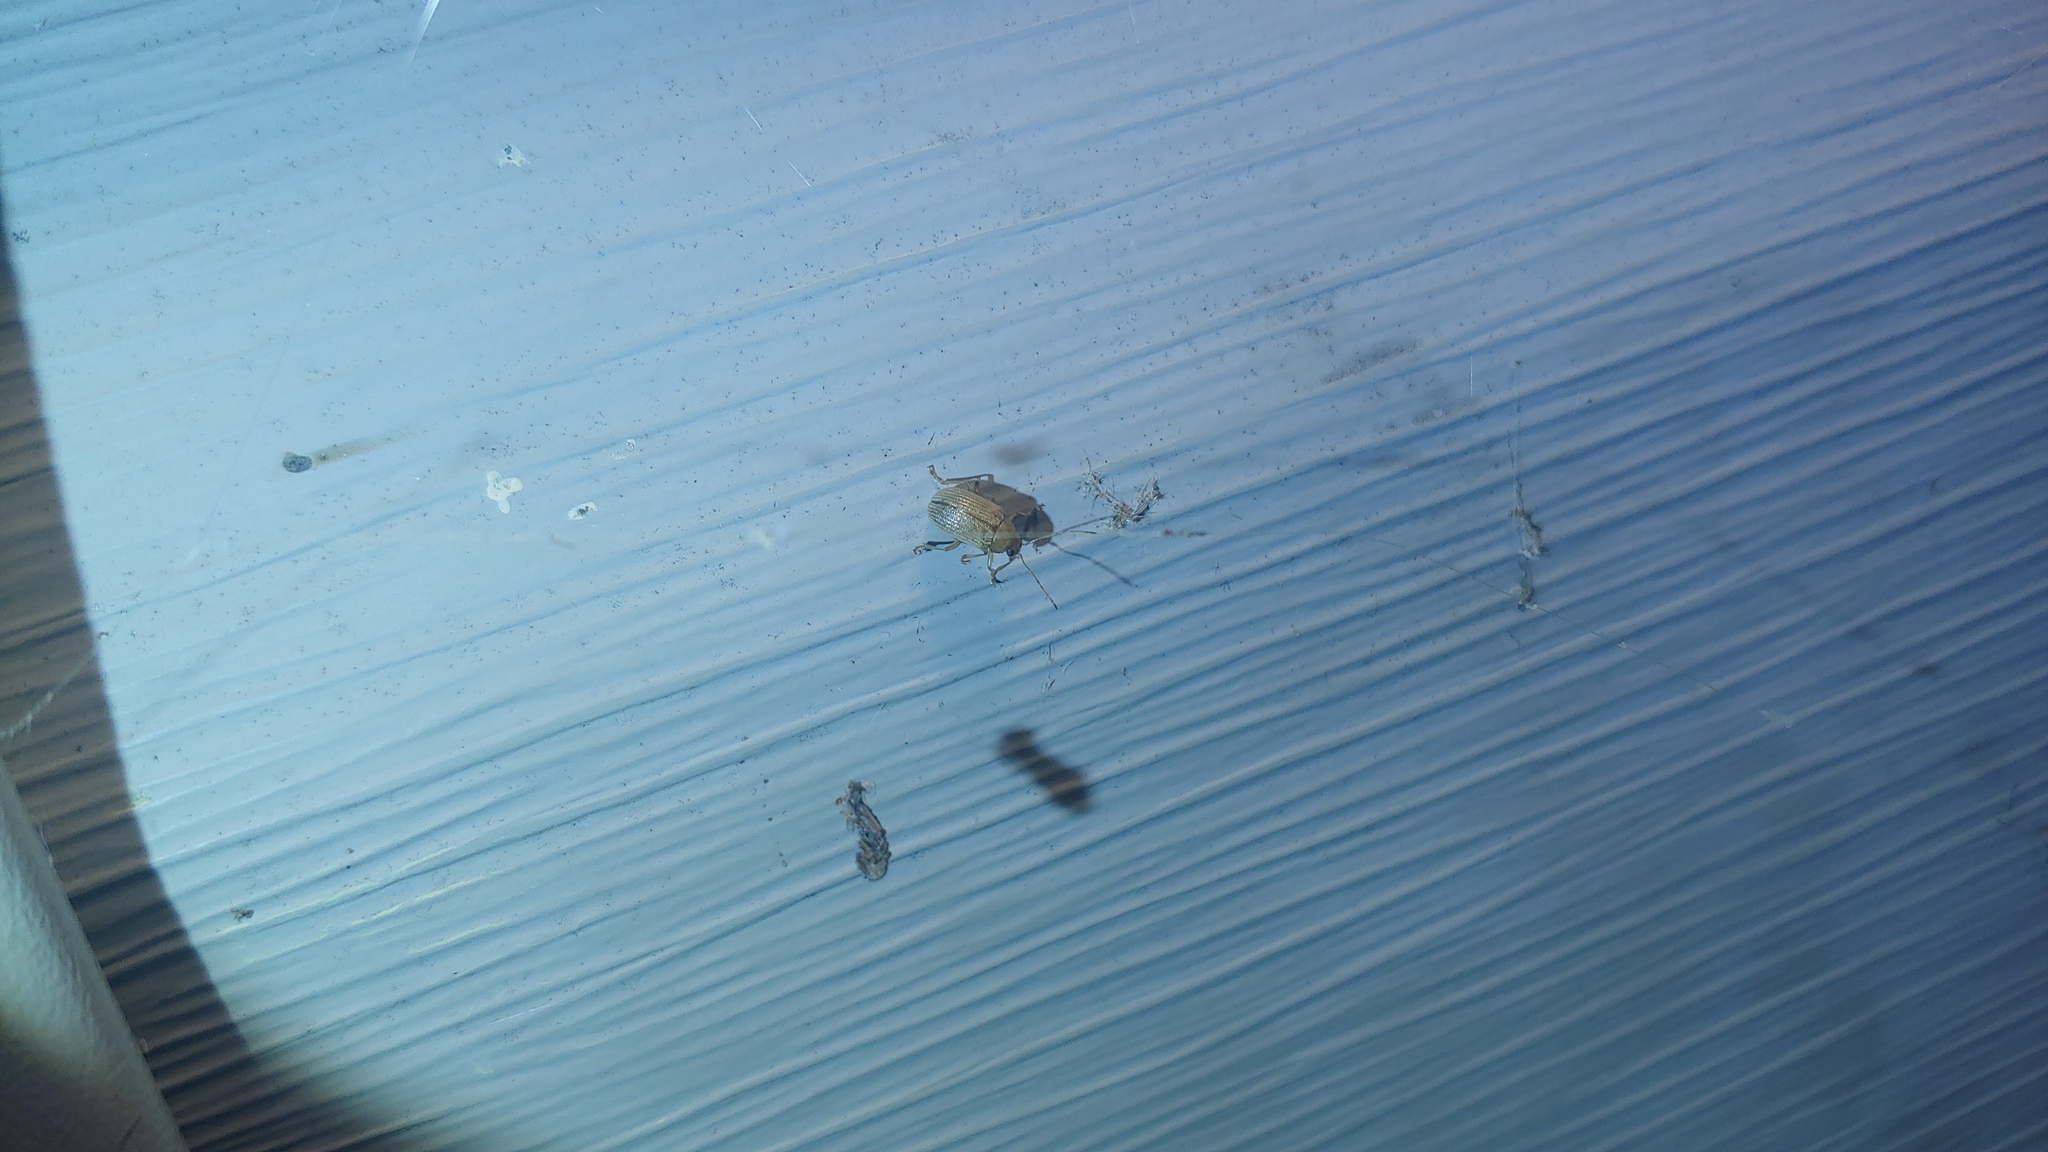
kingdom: Animalia
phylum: Arthropoda
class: Insecta
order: Coleoptera
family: Chrysomelidae
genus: Colaspis
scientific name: Colaspis brunnea
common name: Grape colaspis
